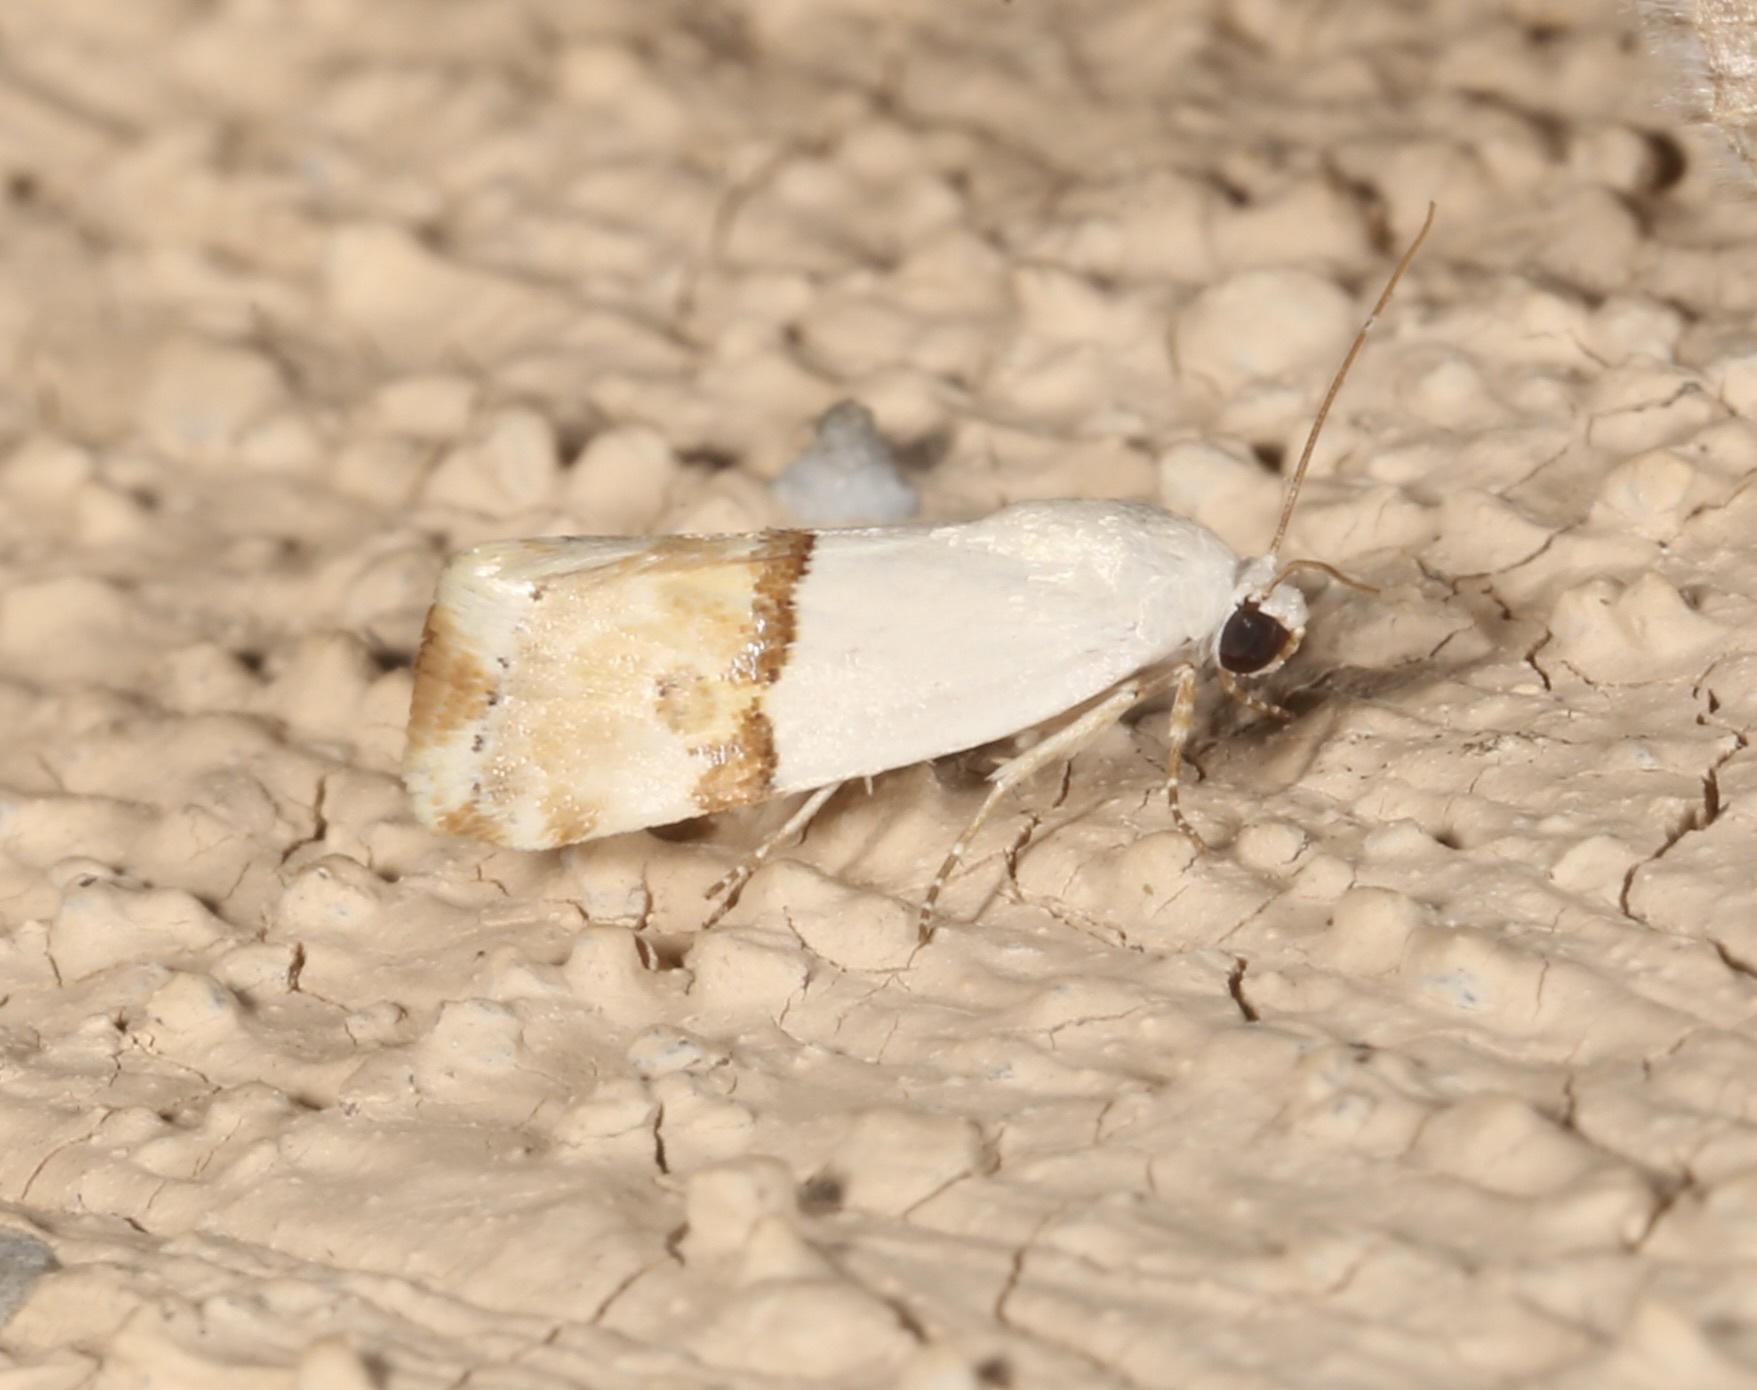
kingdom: Animalia
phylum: Arthropoda
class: Insecta
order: Lepidoptera
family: Noctuidae
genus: Ponometia
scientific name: Ponometia elegantula
